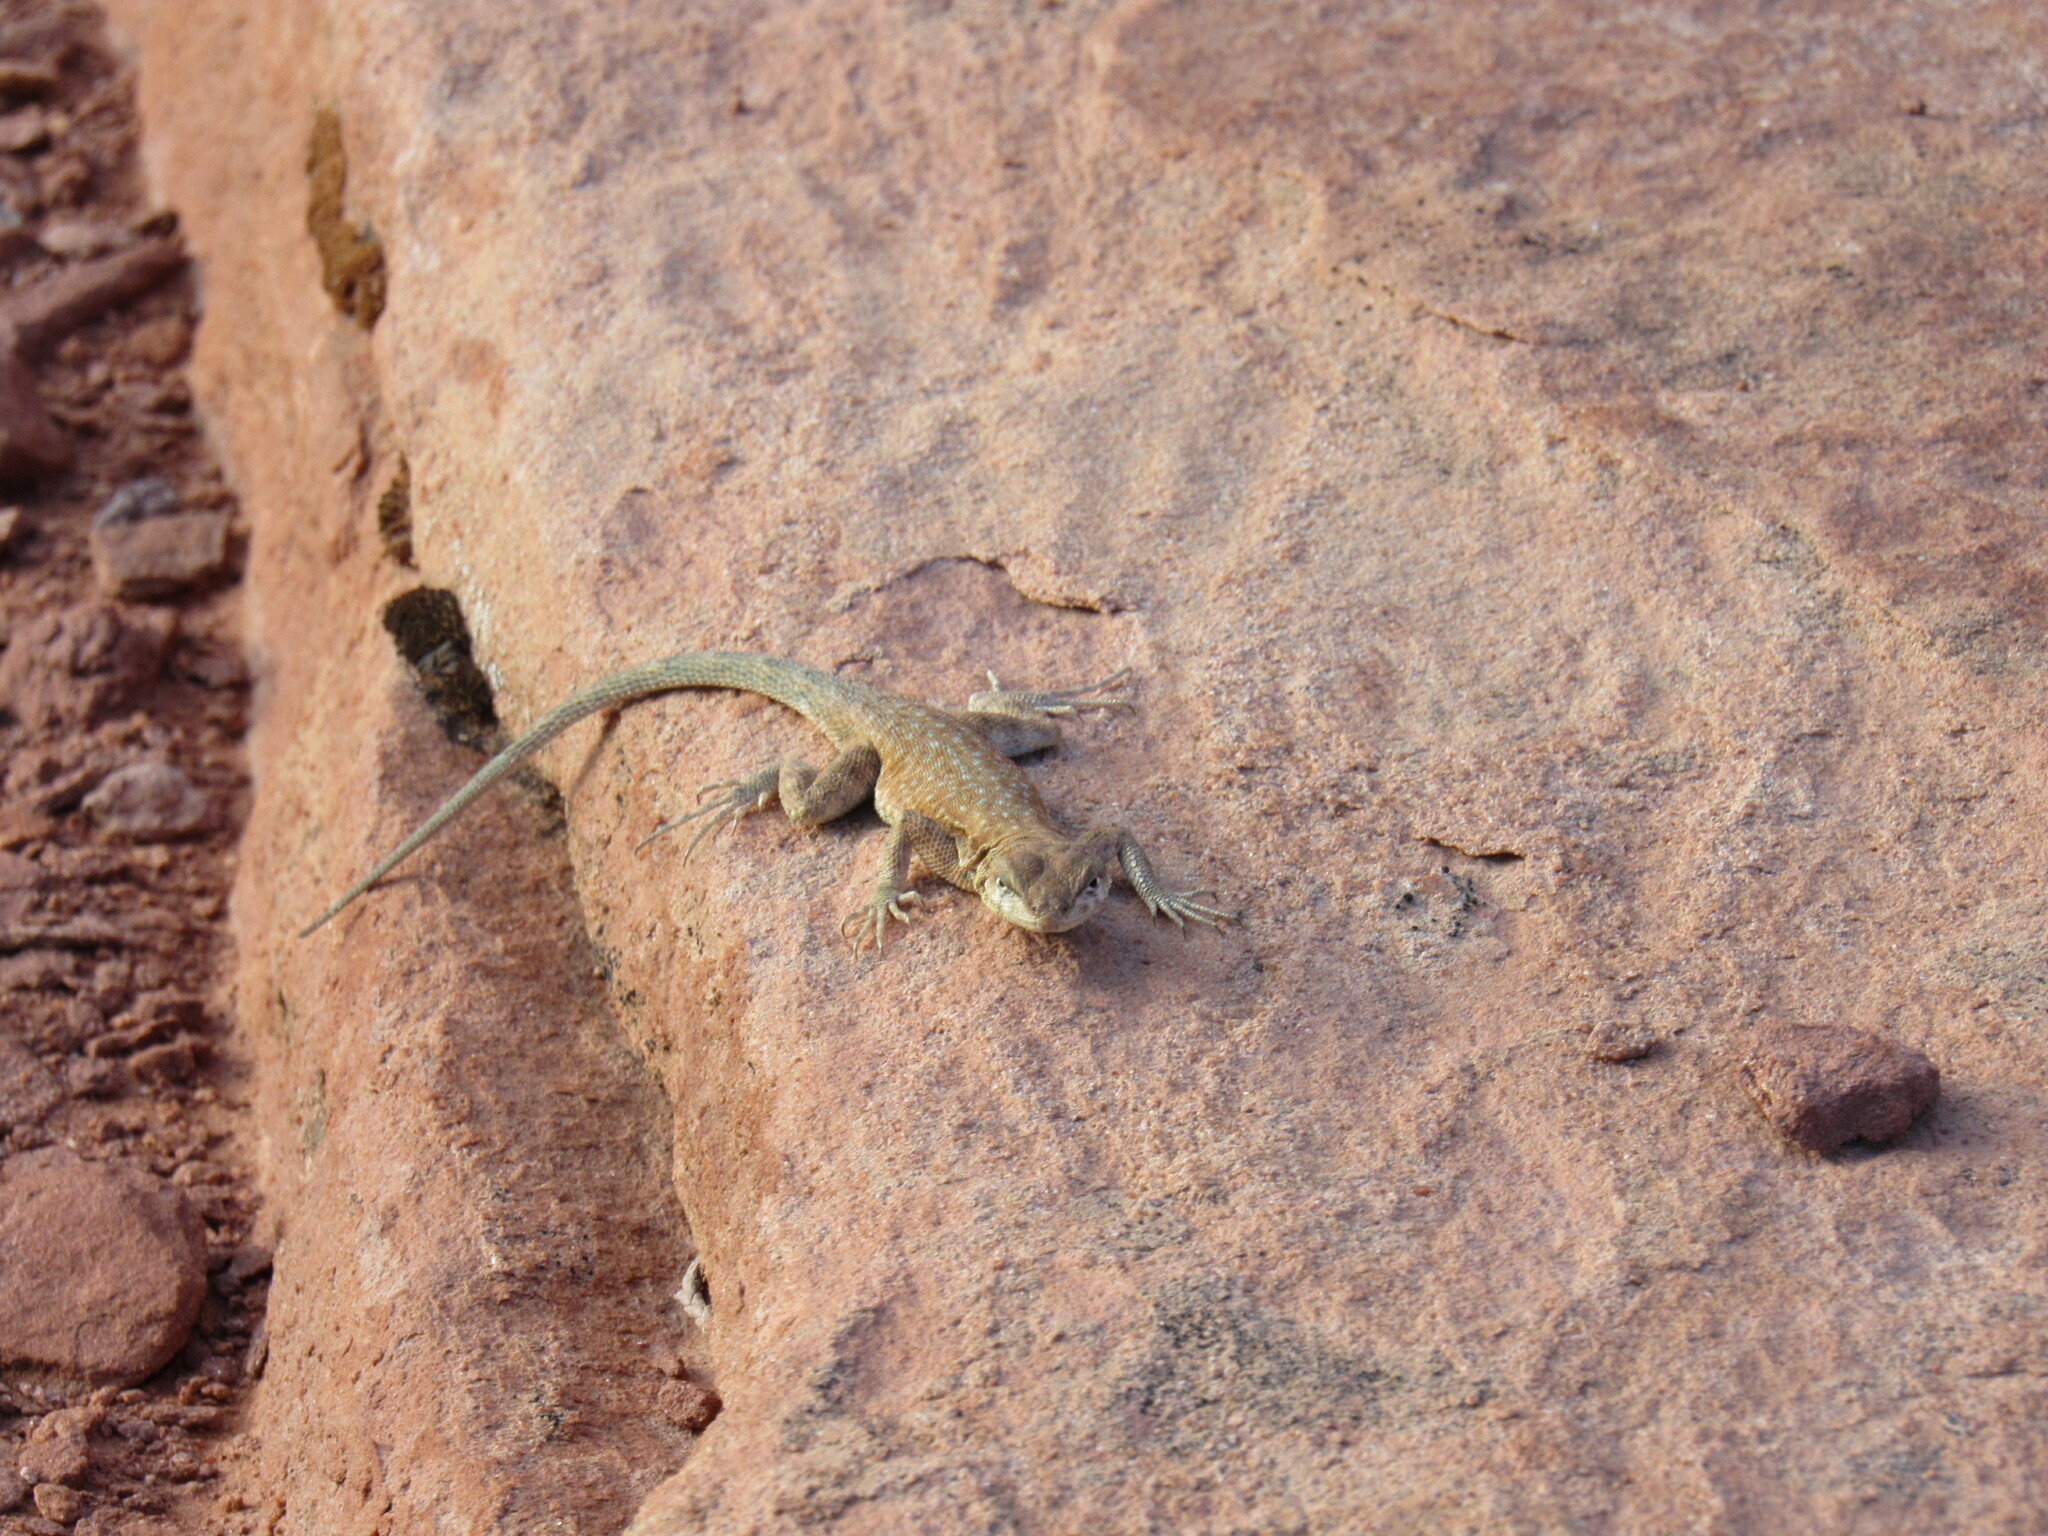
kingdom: Animalia
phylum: Chordata
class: Squamata
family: Phrynosomatidae
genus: Uta
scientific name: Uta stansburiana
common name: Side-blotched lizard
